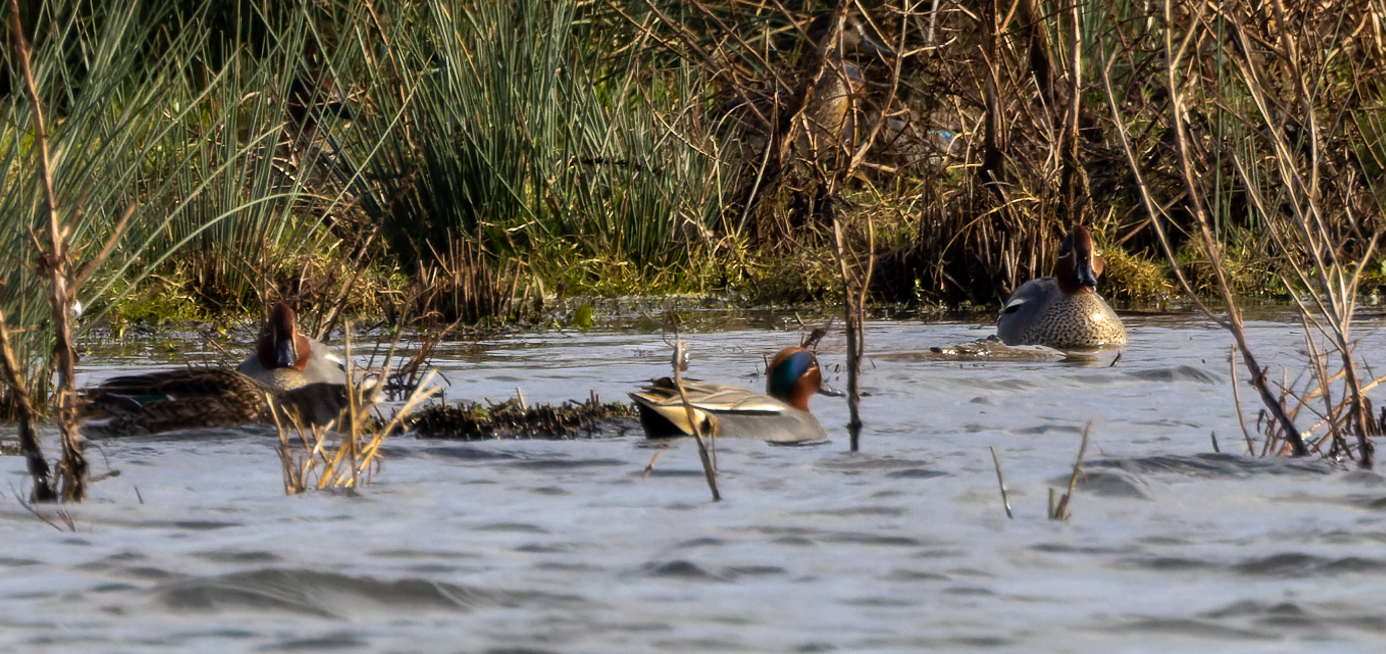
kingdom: Animalia
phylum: Chordata
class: Aves
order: Anseriformes
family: Anatidae
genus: Anas
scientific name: Anas crecca
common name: Eurasian teal
